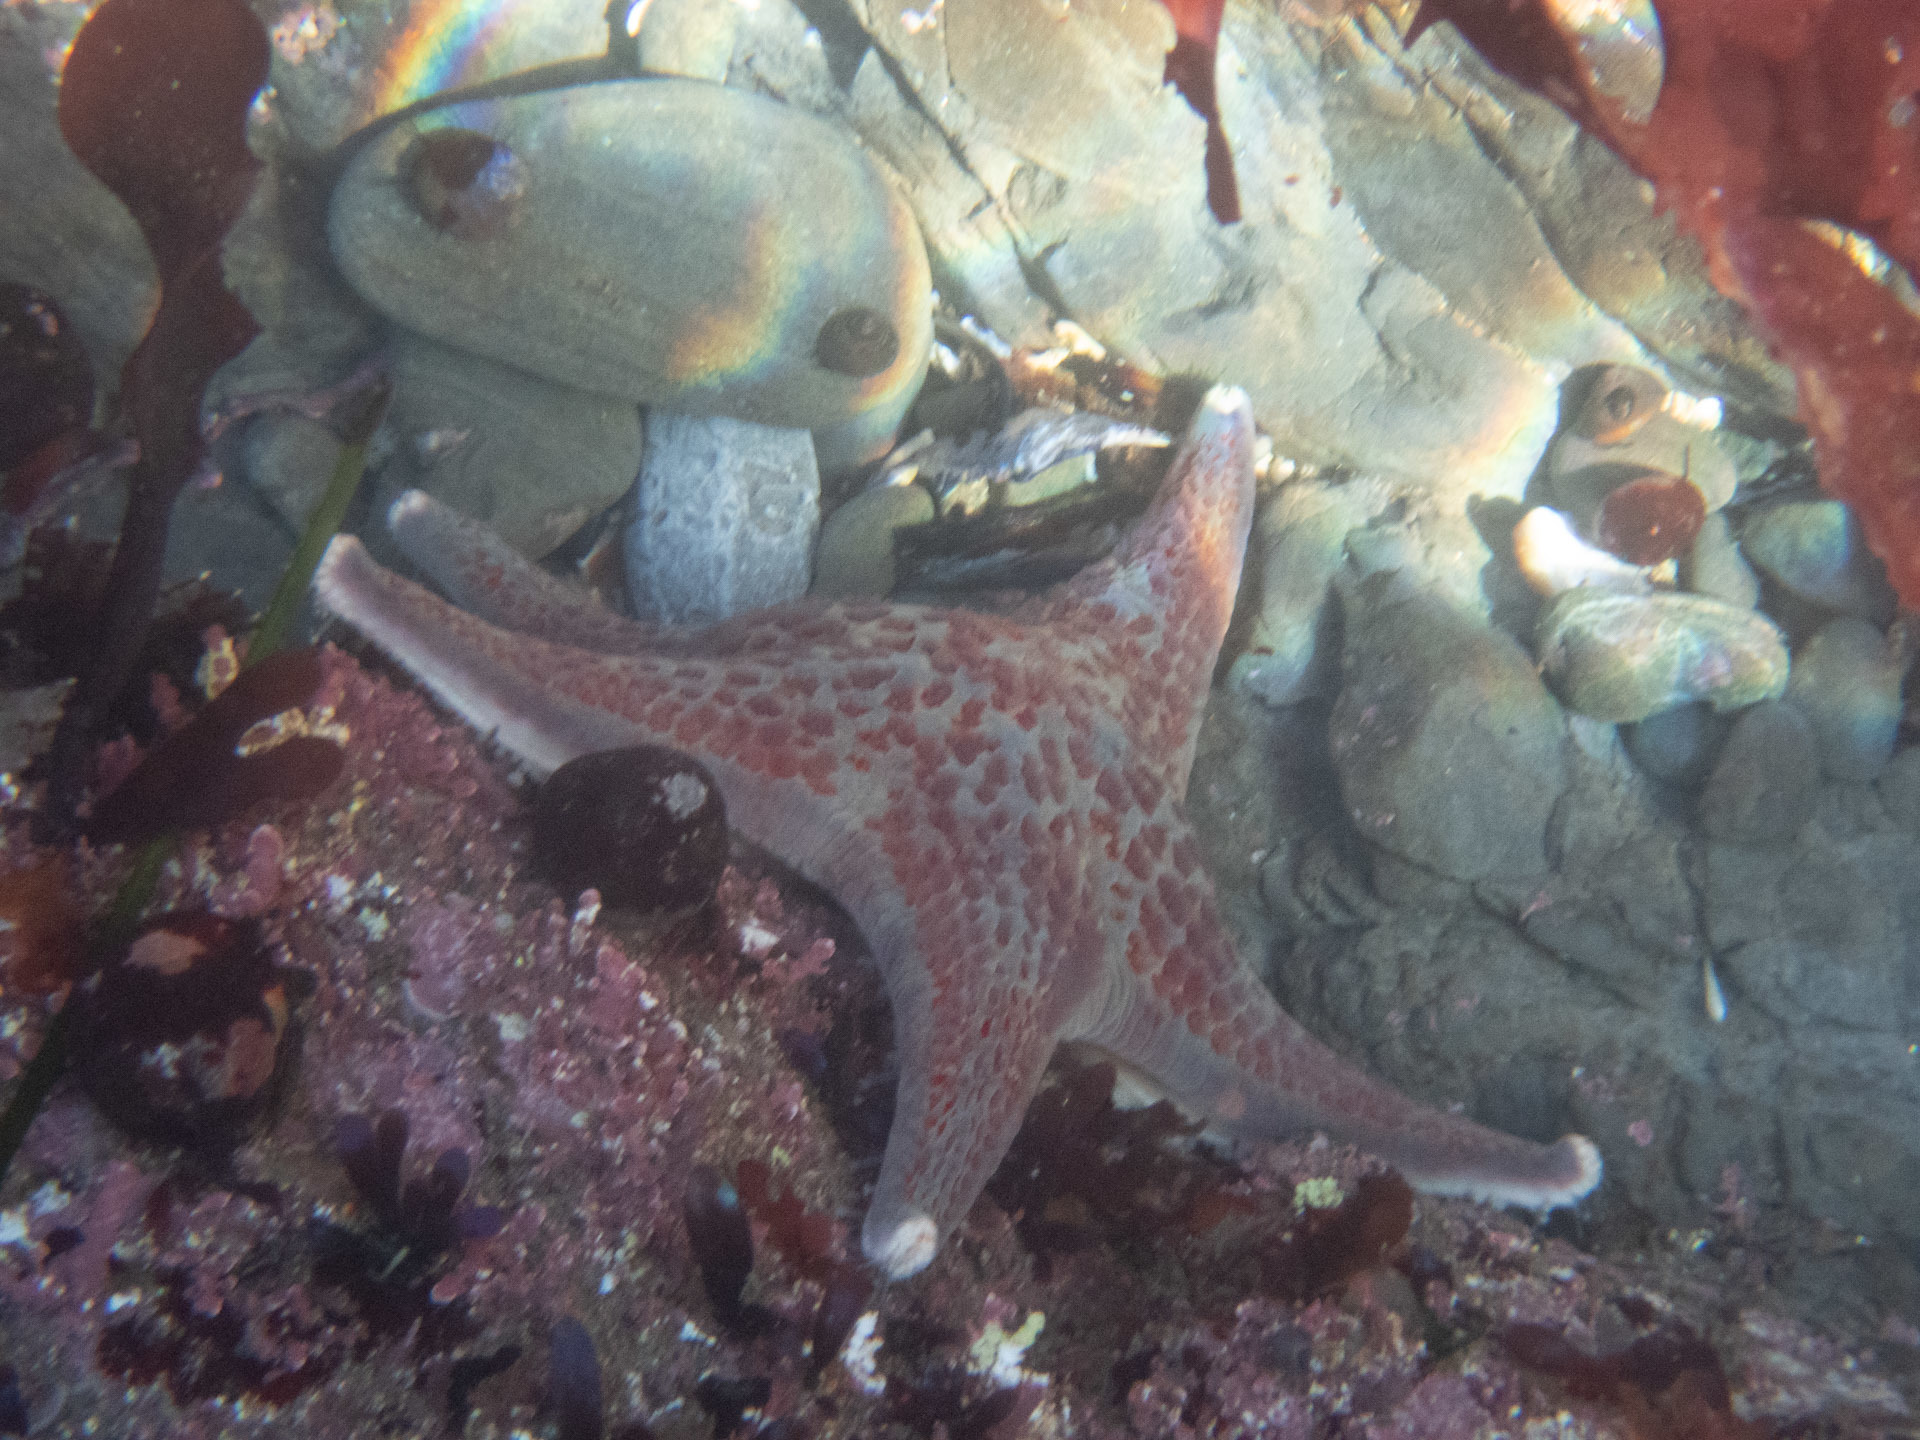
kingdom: Animalia
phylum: Echinodermata
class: Asteroidea
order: Valvatida
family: Asteropseidae
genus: Dermasterias
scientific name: Dermasterias imbricata
